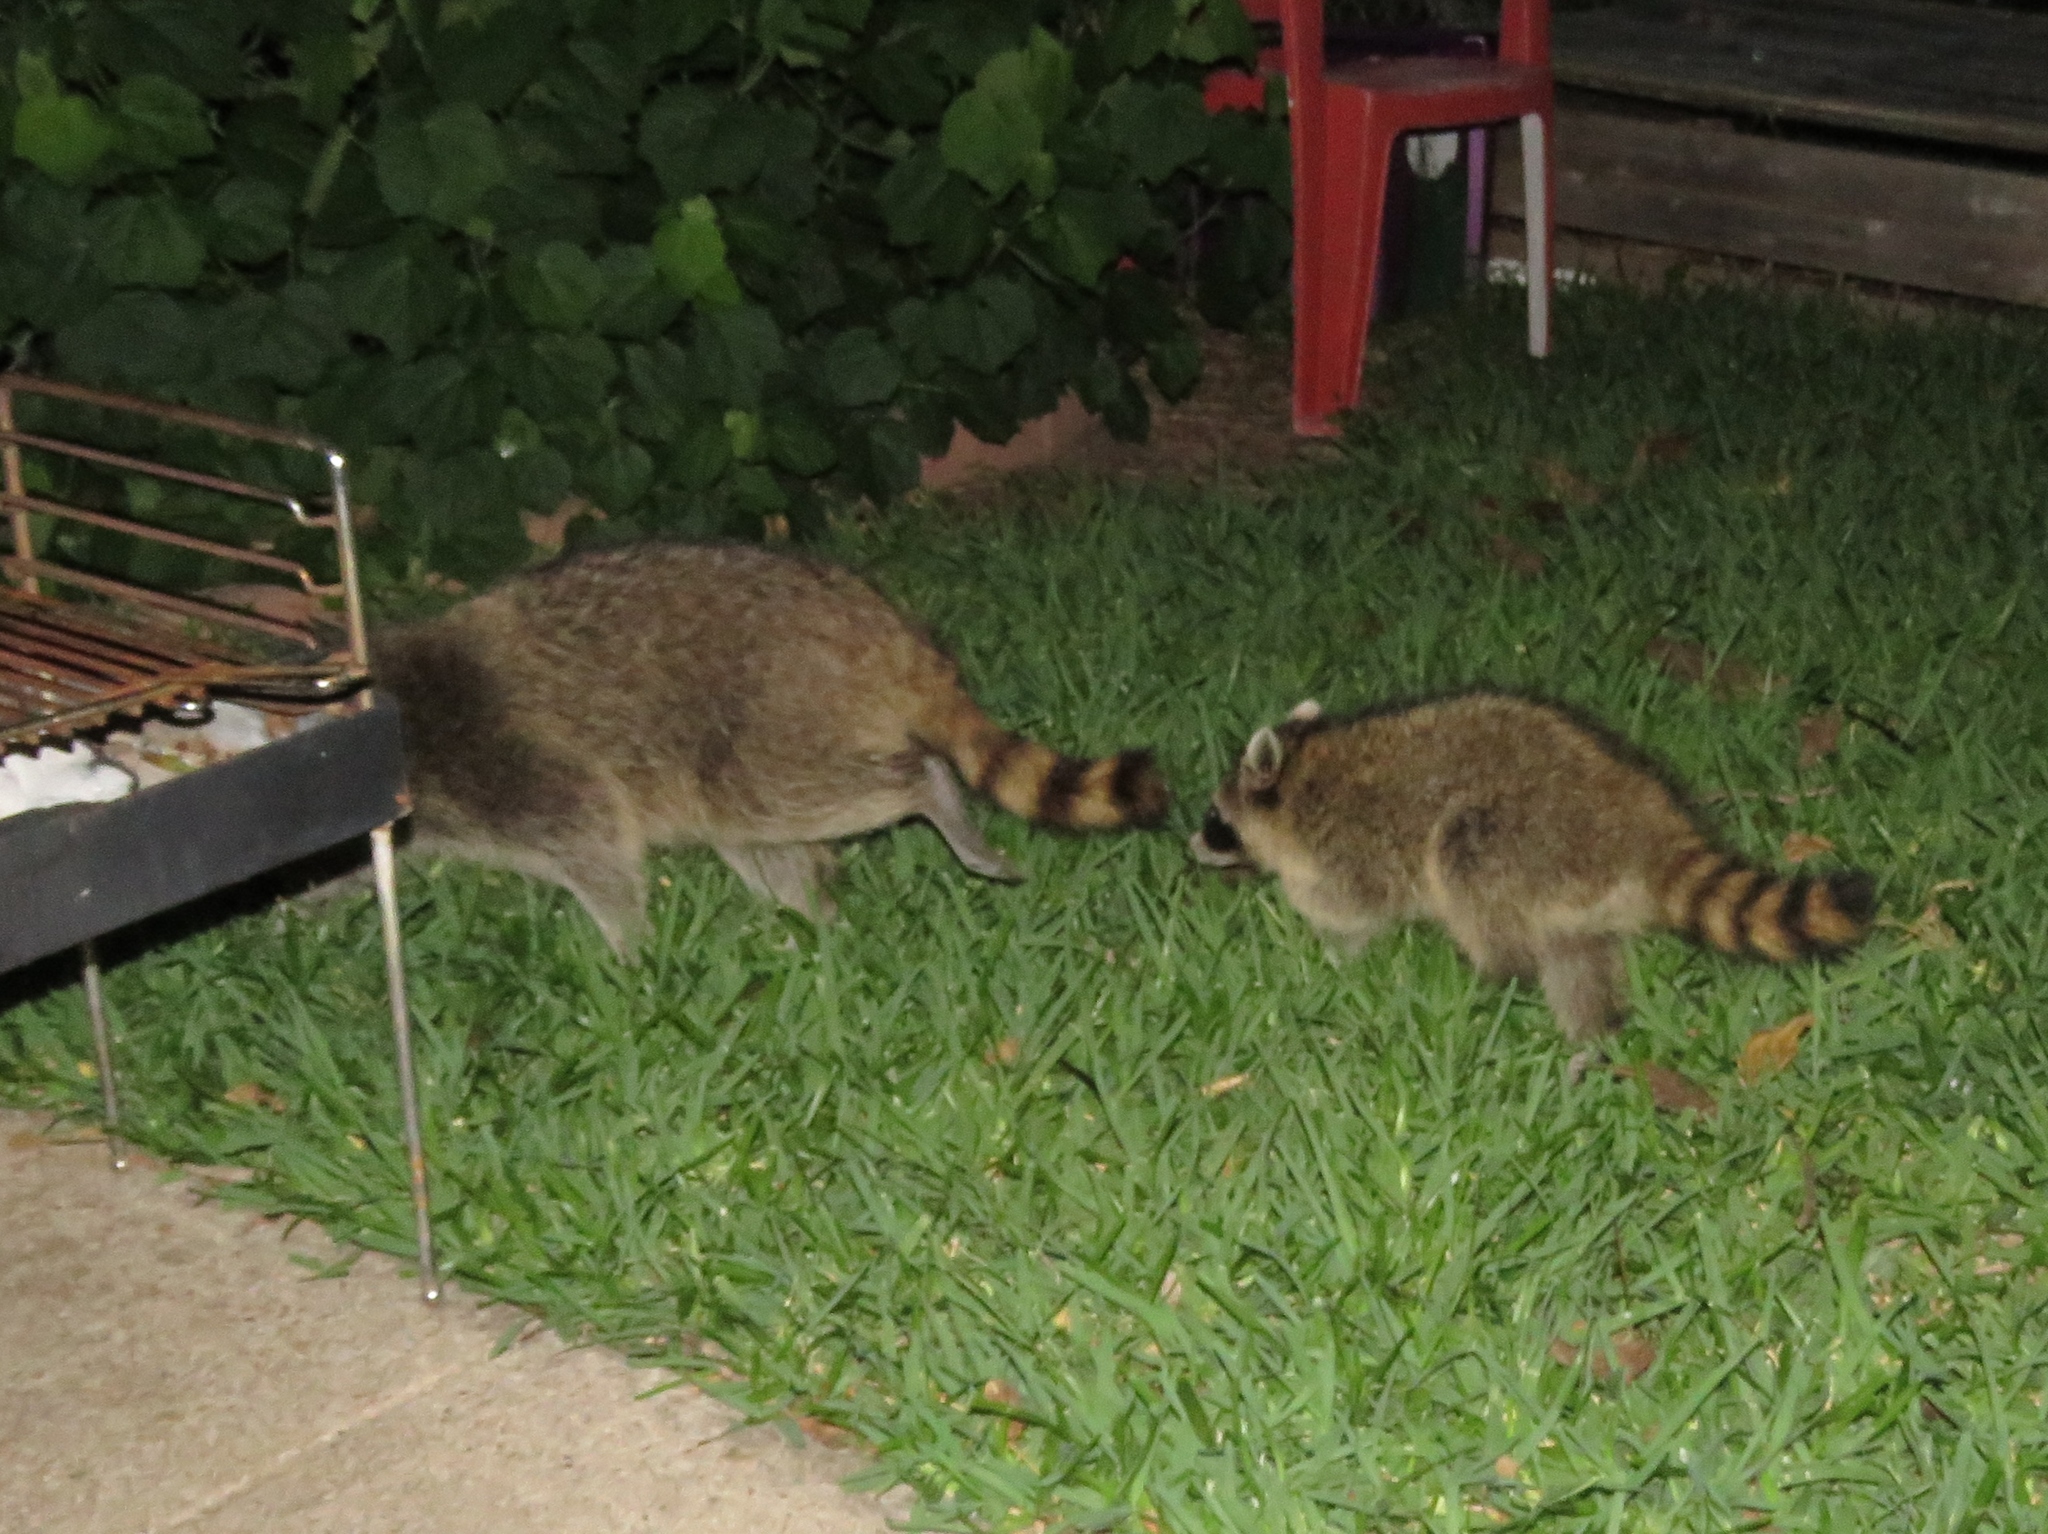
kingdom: Animalia
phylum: Chordata
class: Mammalia
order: Carnivora
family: Procyonidae
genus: Procyon
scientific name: Procyon lotor
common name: Raccoon
